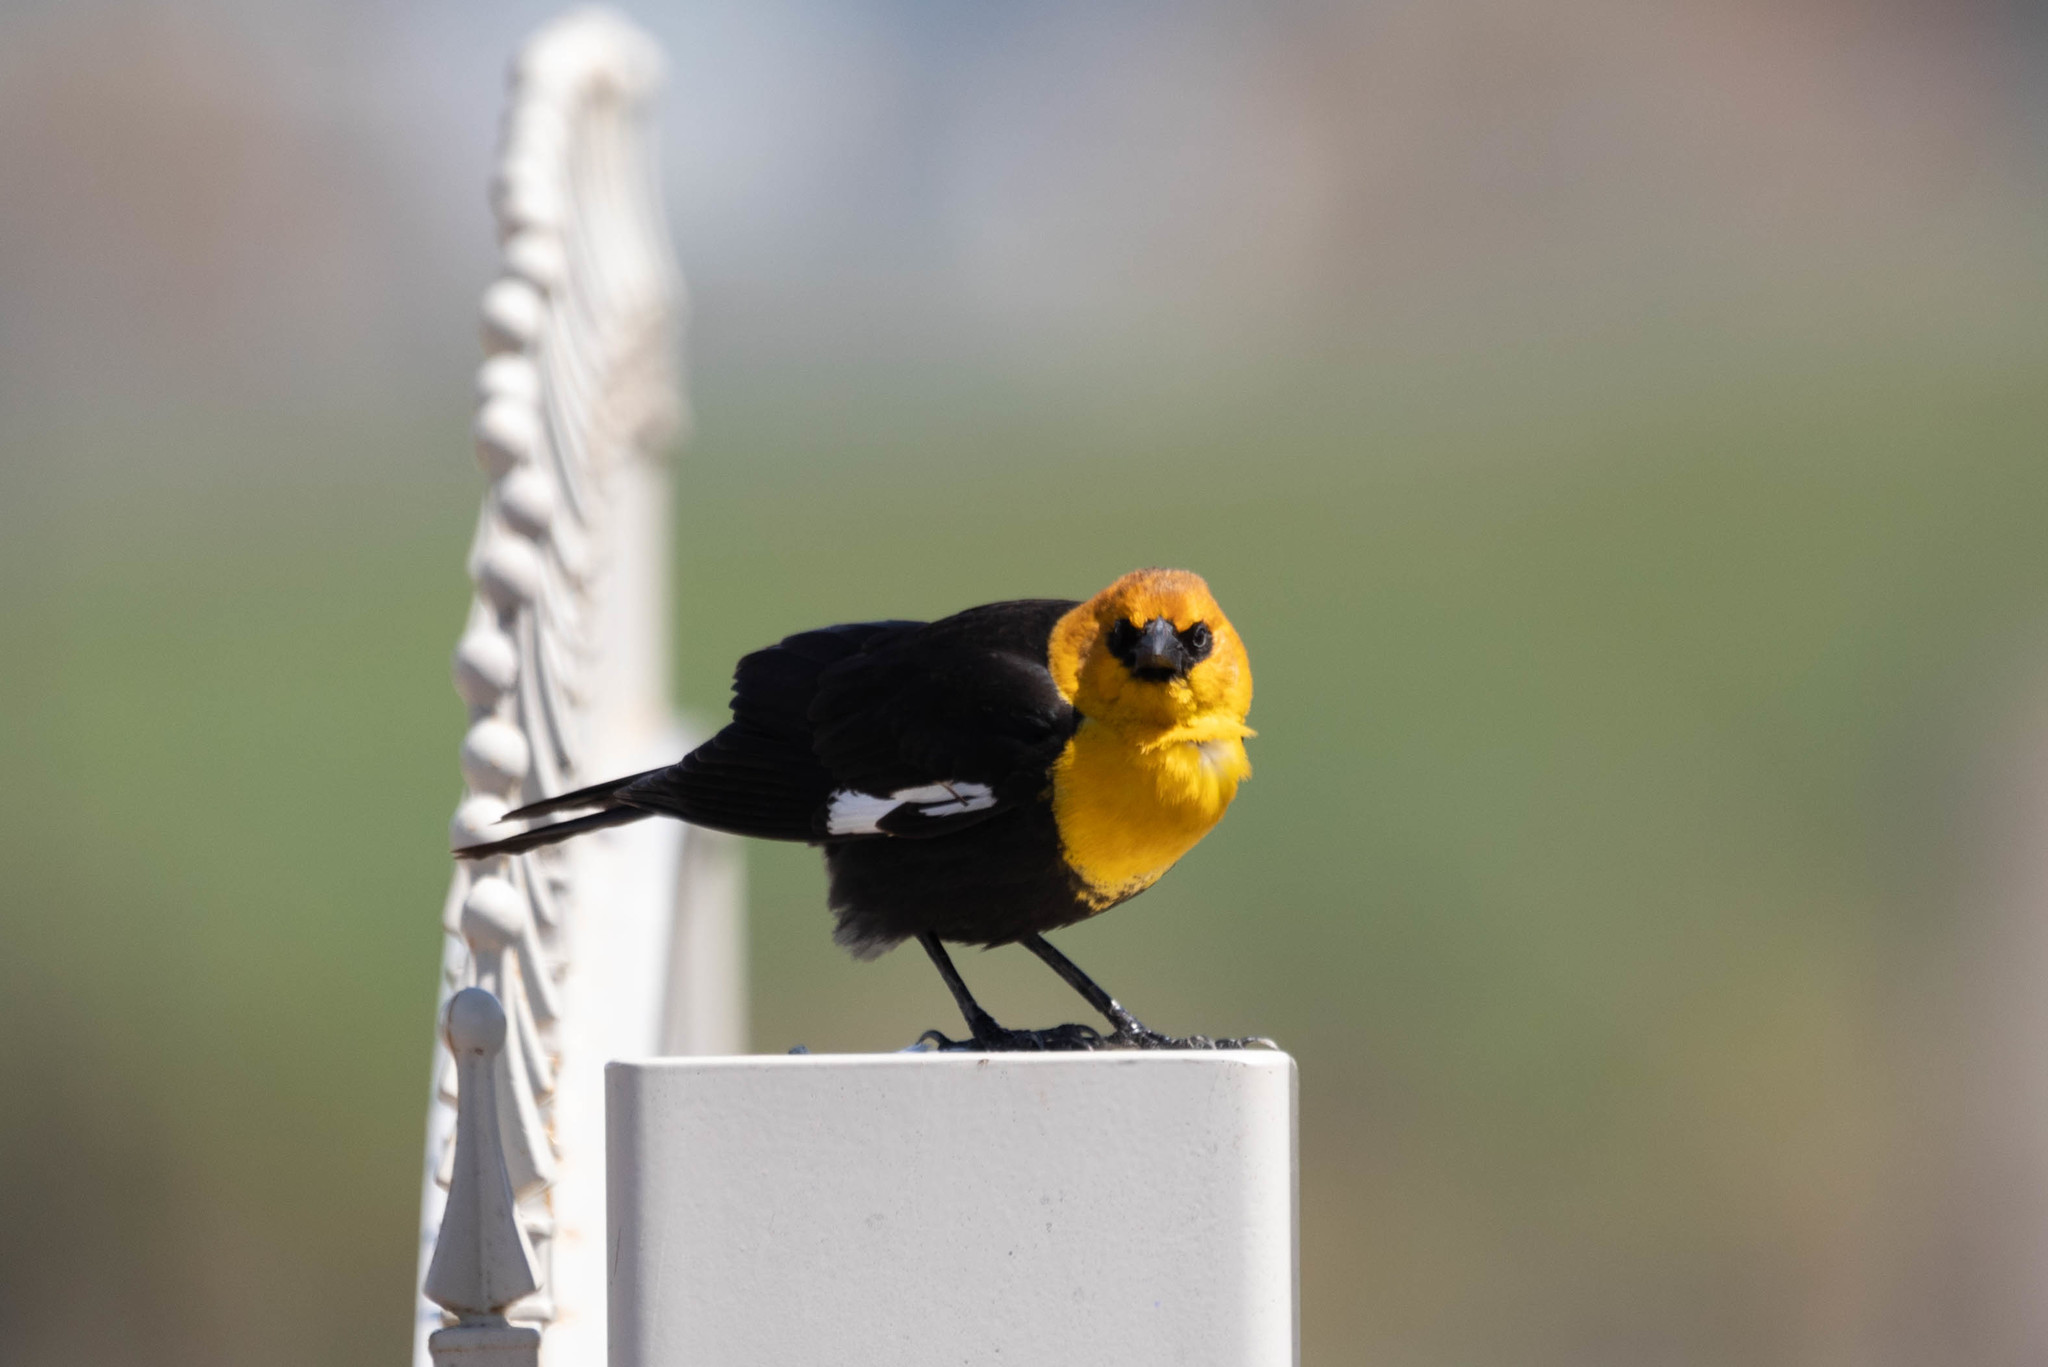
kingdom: Animalia
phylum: Chordata
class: Aves
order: Passeriformes
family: Icteridae
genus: Xanthocephalus
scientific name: Xanthocephalus xanthocephalus
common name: Yellow-headed blackbird
